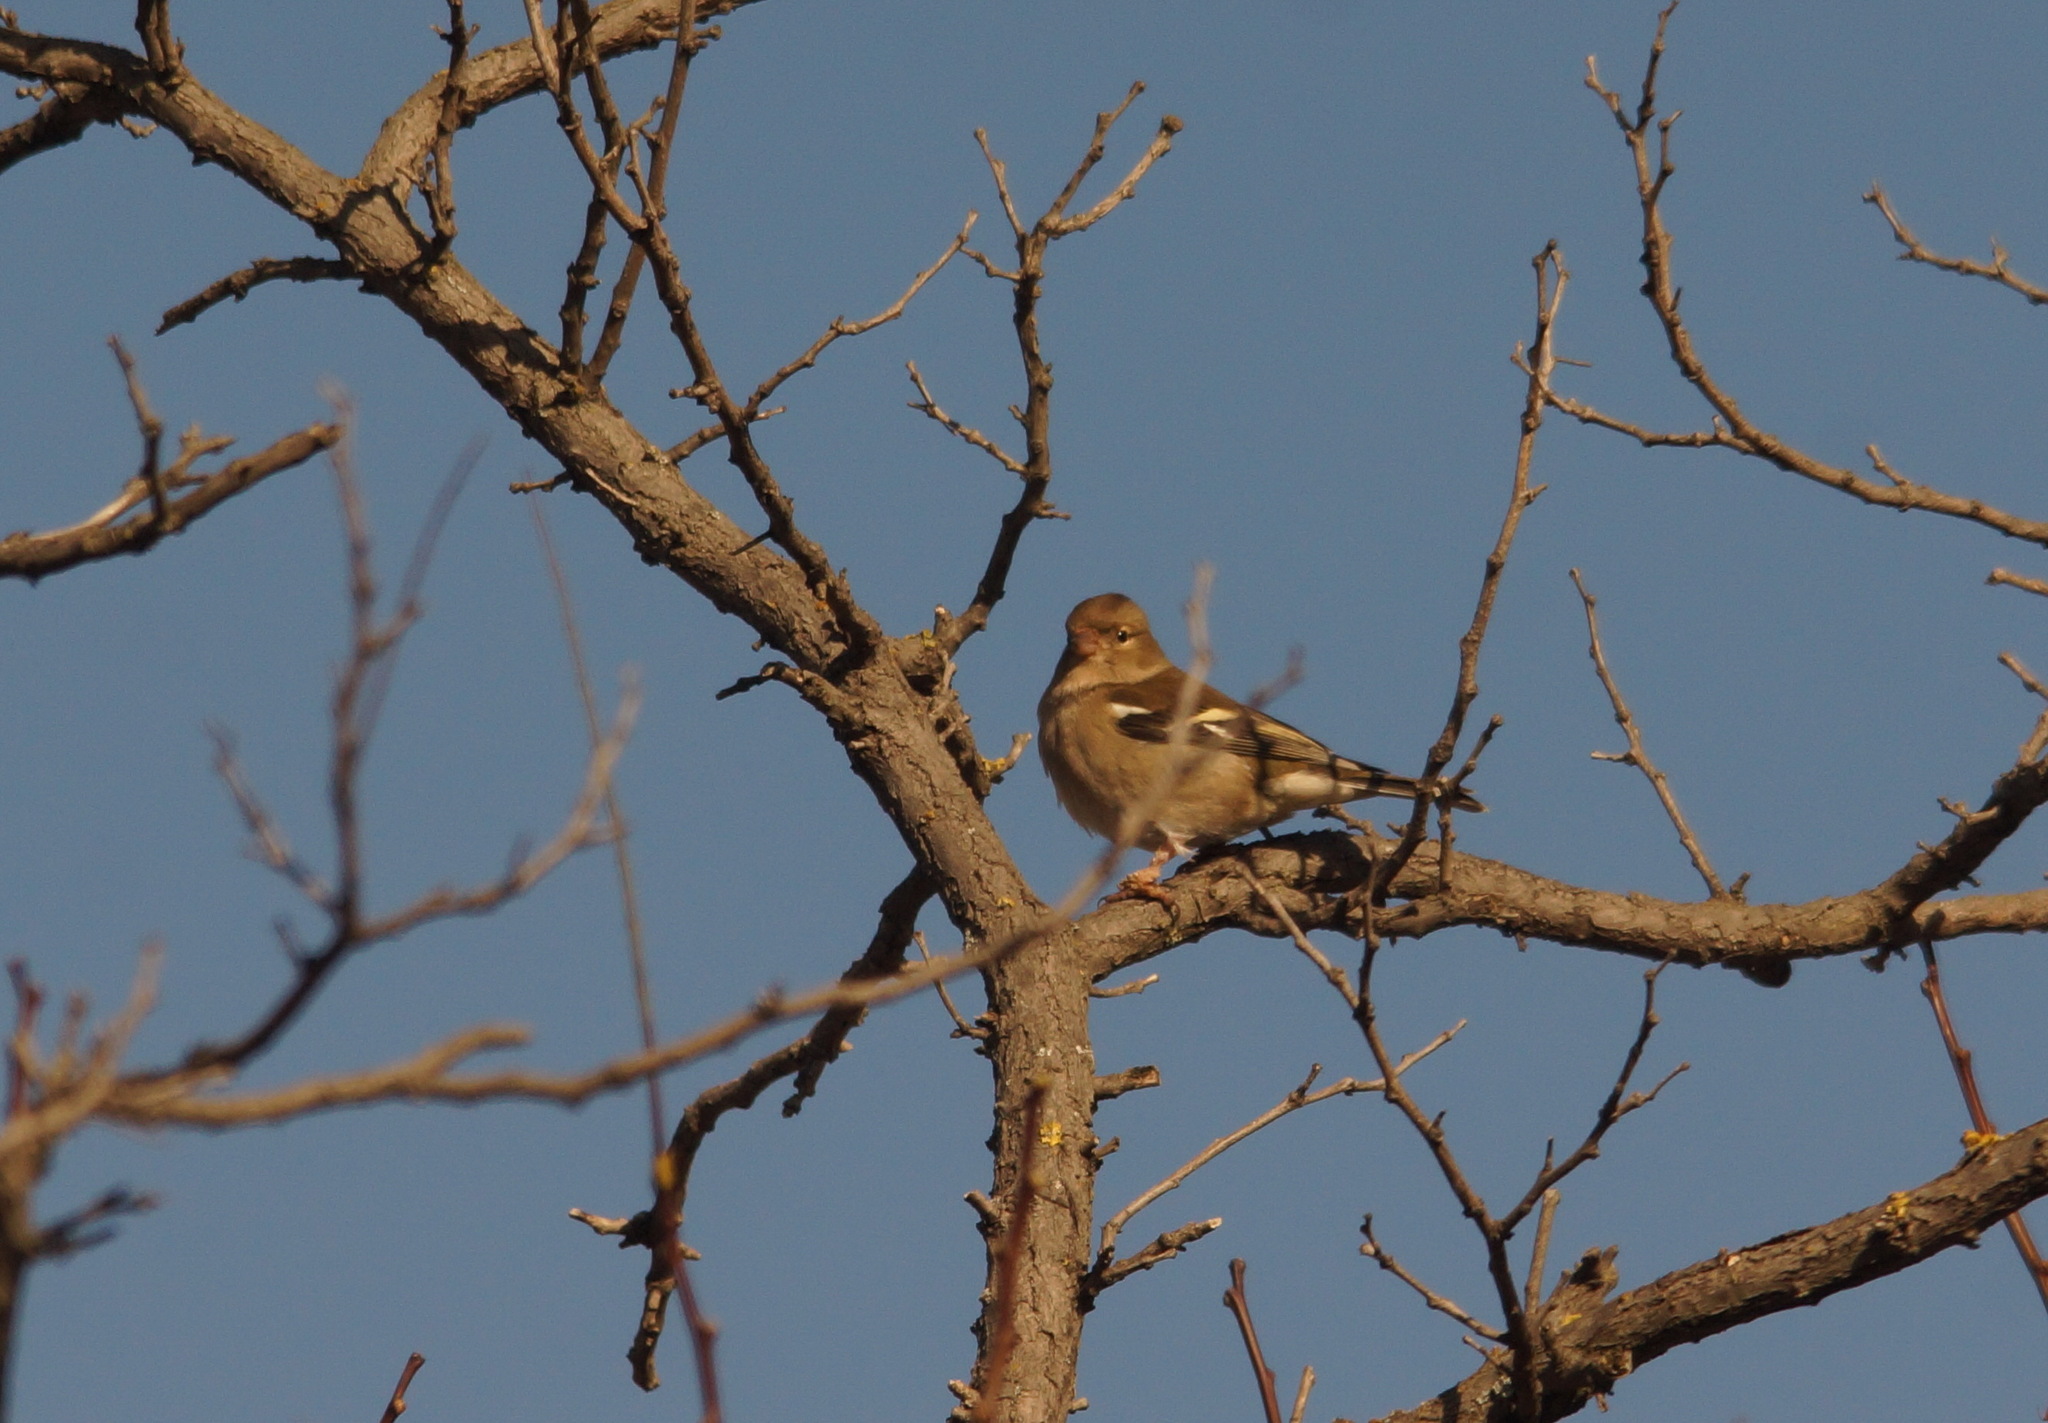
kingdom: Animalia
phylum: Chordata
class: Aves
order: Passeriformes
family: Fringillidae
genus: Fringilla
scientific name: Fringilla coelebs
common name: Common chaffinch
